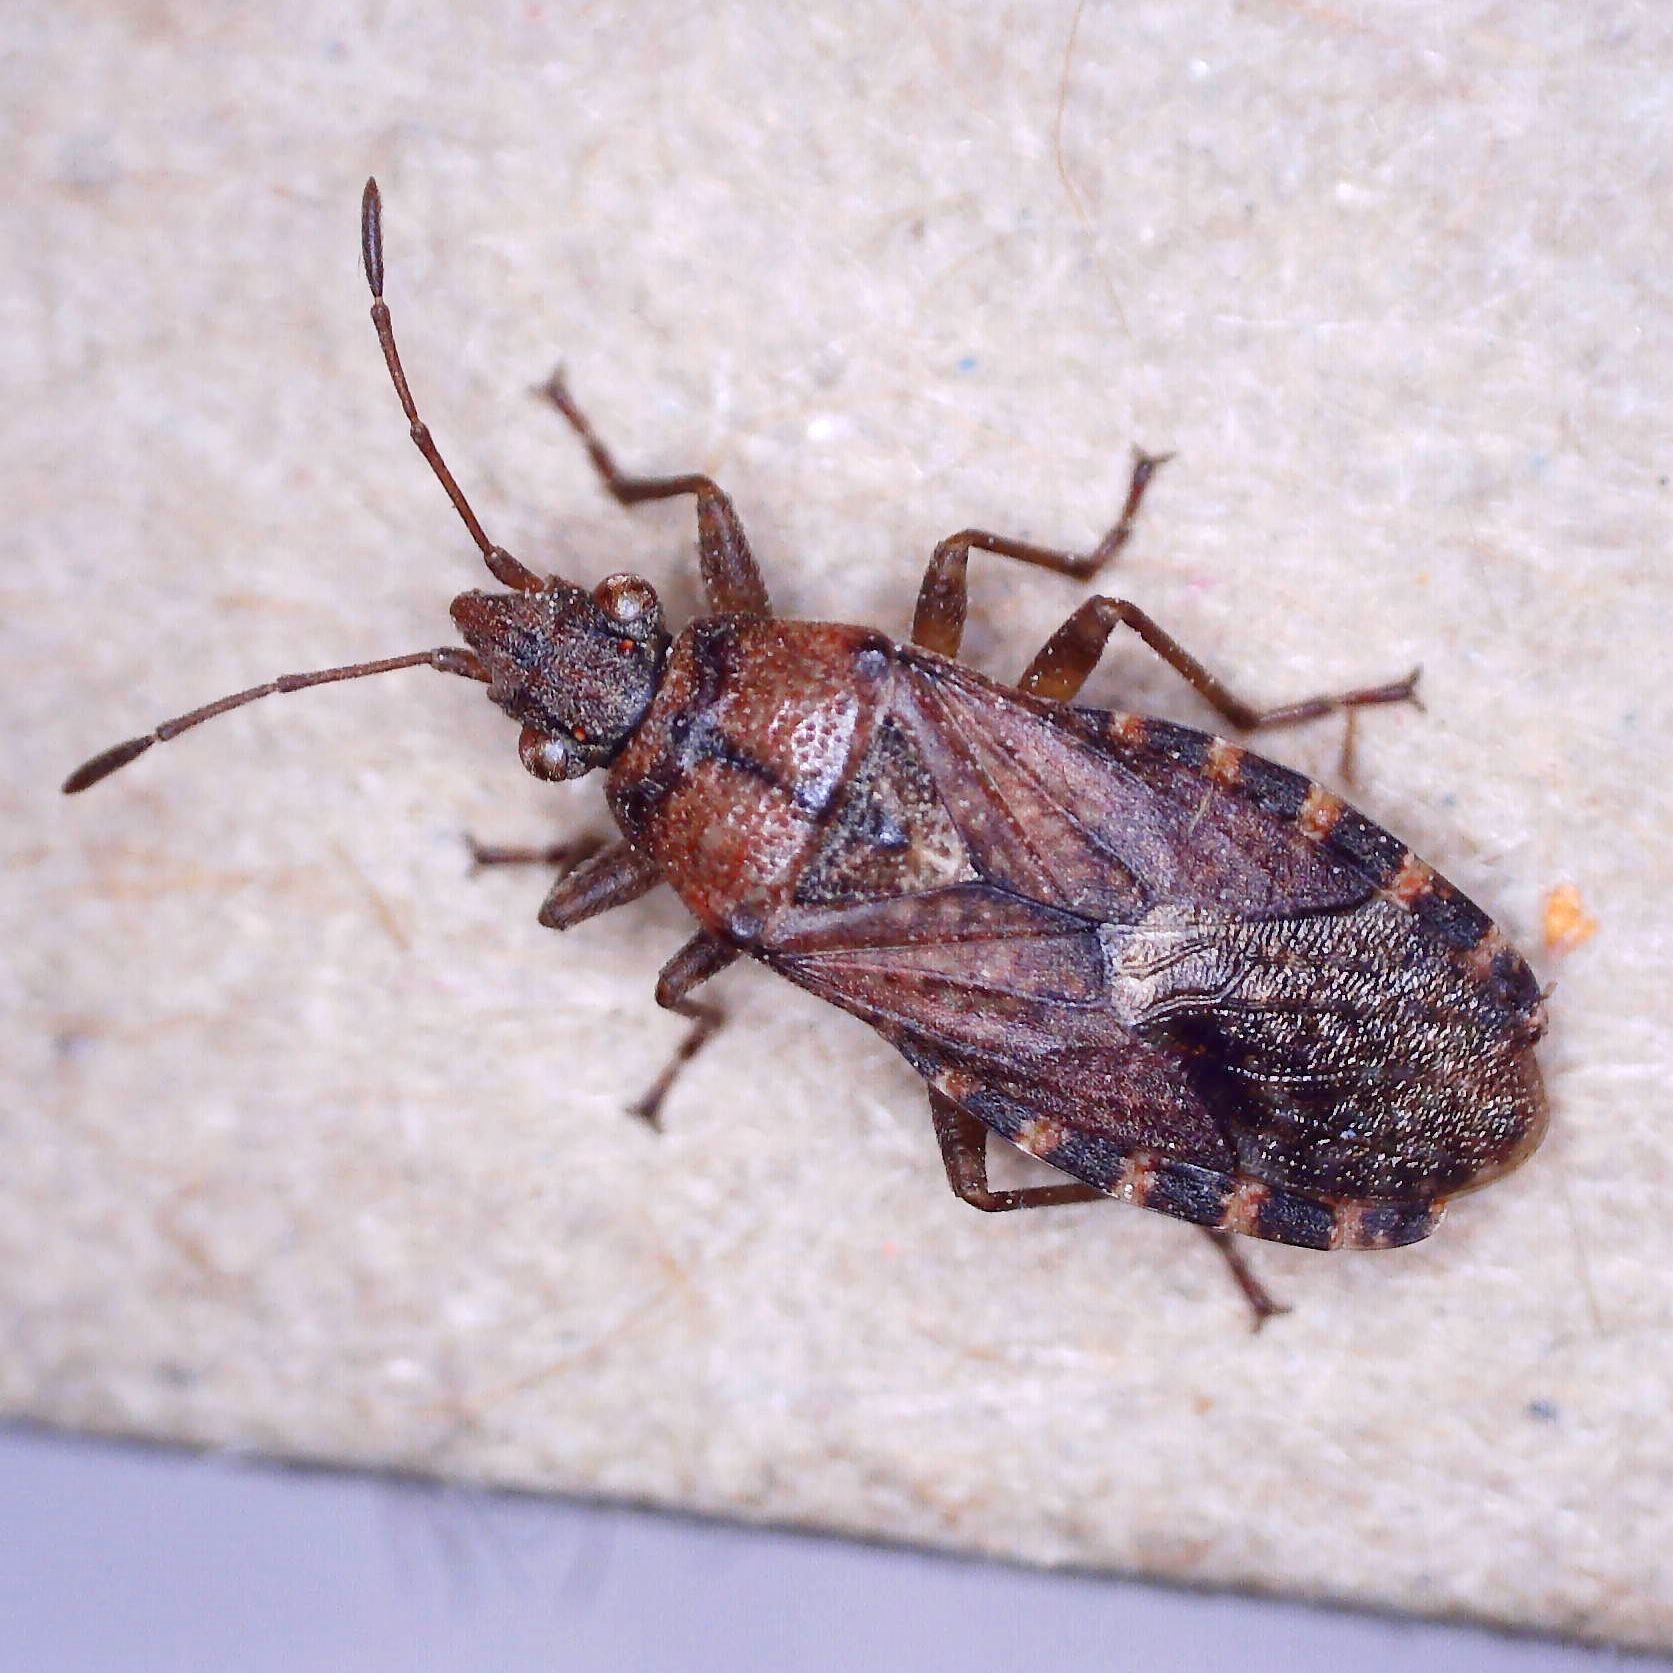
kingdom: Animalia
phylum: Arthropoda
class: Insecta
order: Hemiptera
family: Lygaeidae
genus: Orsillus
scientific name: Orsillus depressus
